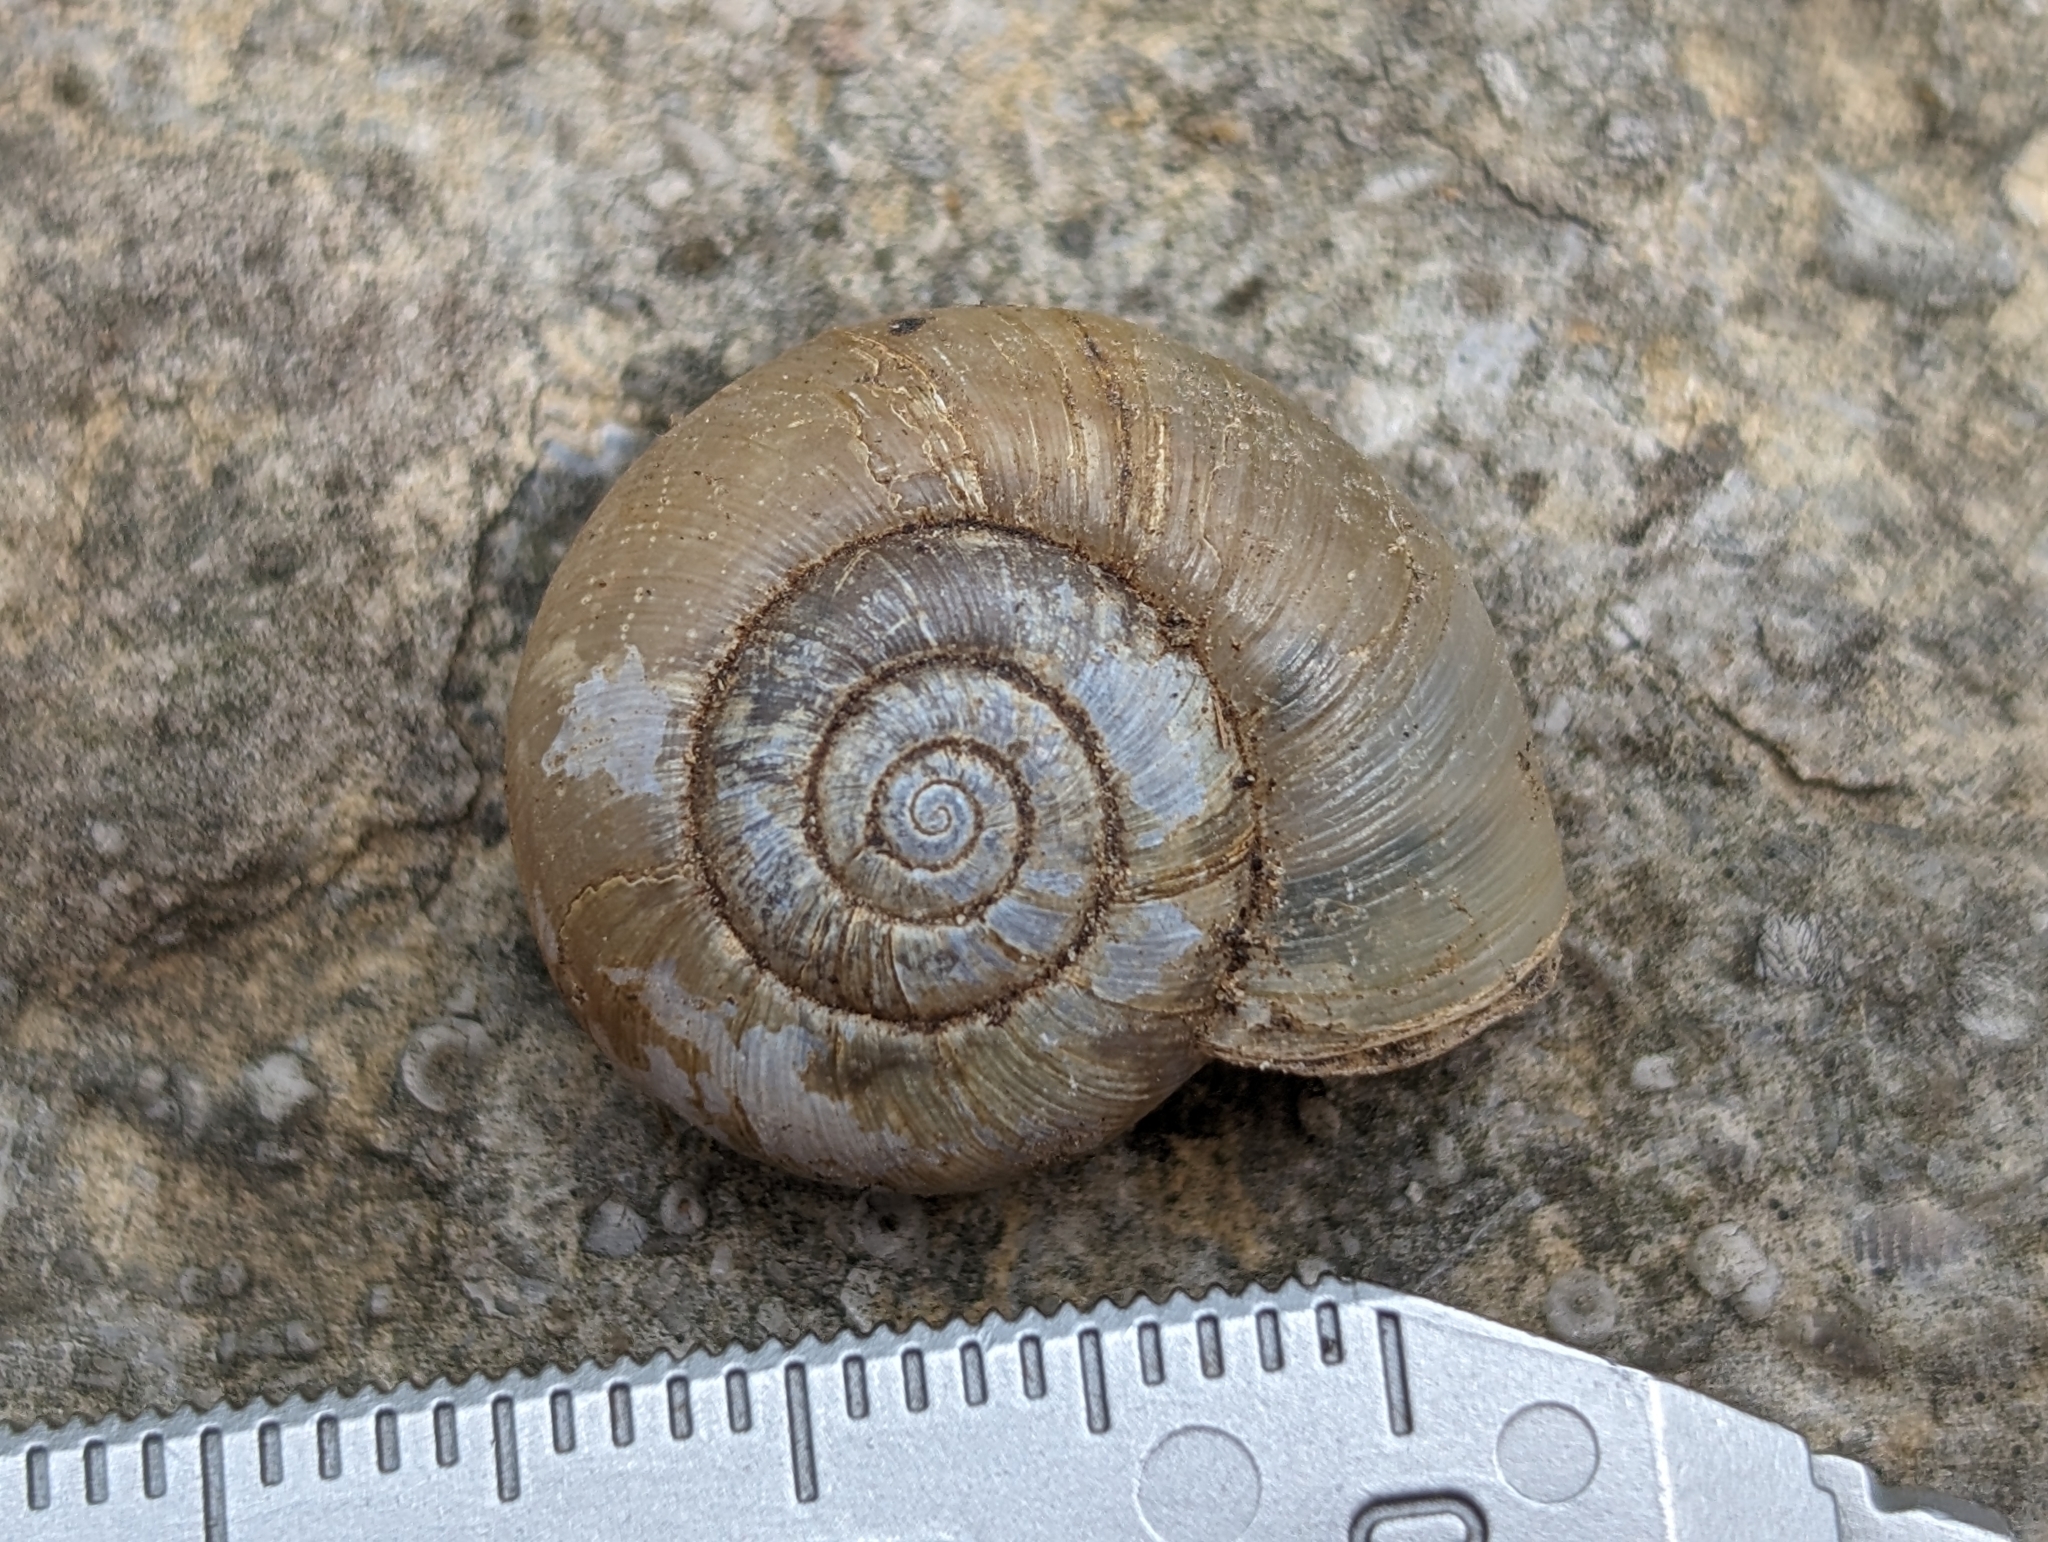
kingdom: Animalia
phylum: Mollusca
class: Gastropoda
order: Stylommatophora
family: Haplotrematidae
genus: Haplotrema
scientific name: Haplotrema concavum
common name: Gray-foot lancetooth
